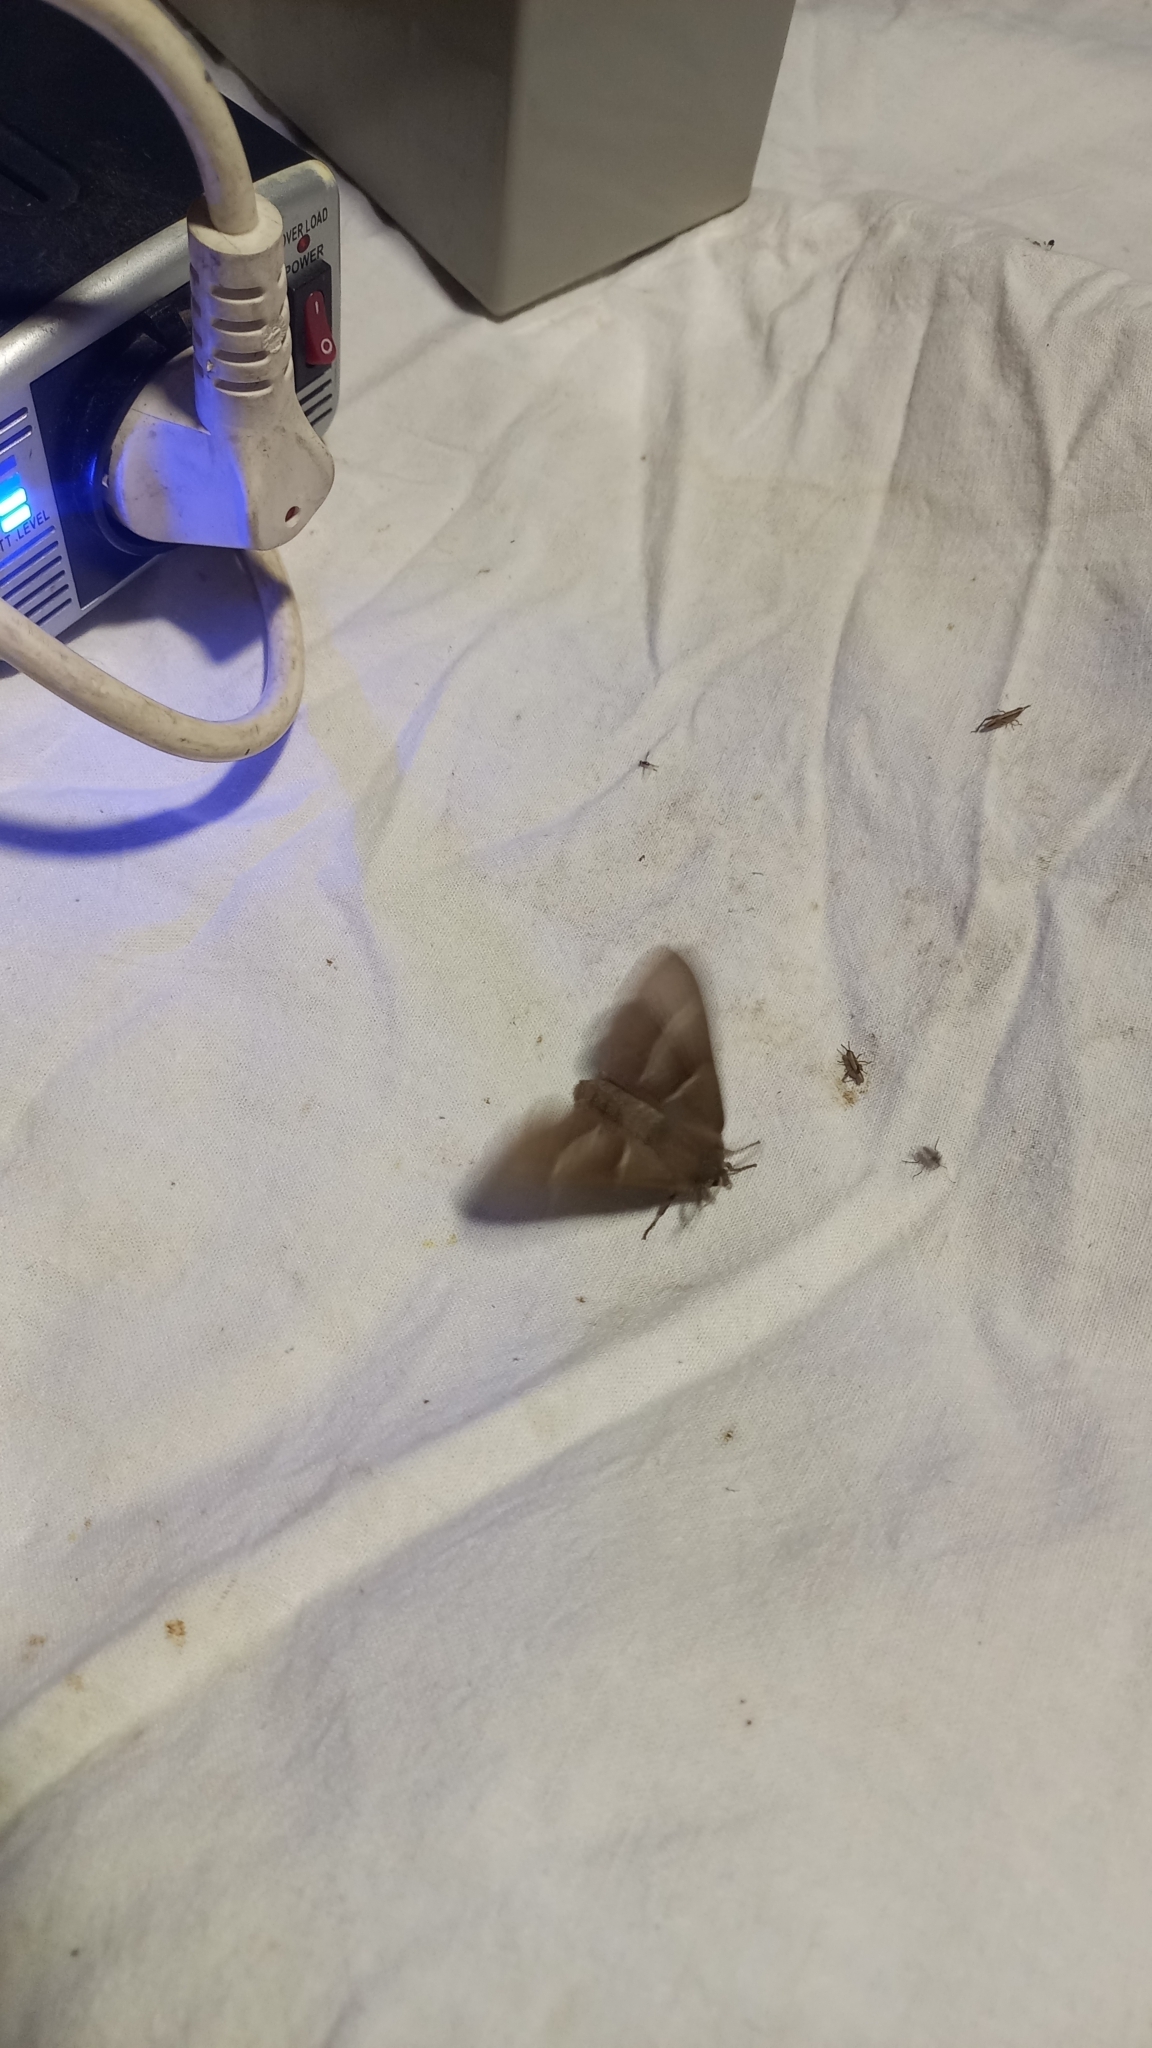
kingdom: Animalia
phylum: Arthropoda
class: Insecta
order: Lepidoptera
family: Lasiocampidae
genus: Macrothylacia
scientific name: Macrothylacia rubi
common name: Fox moth
